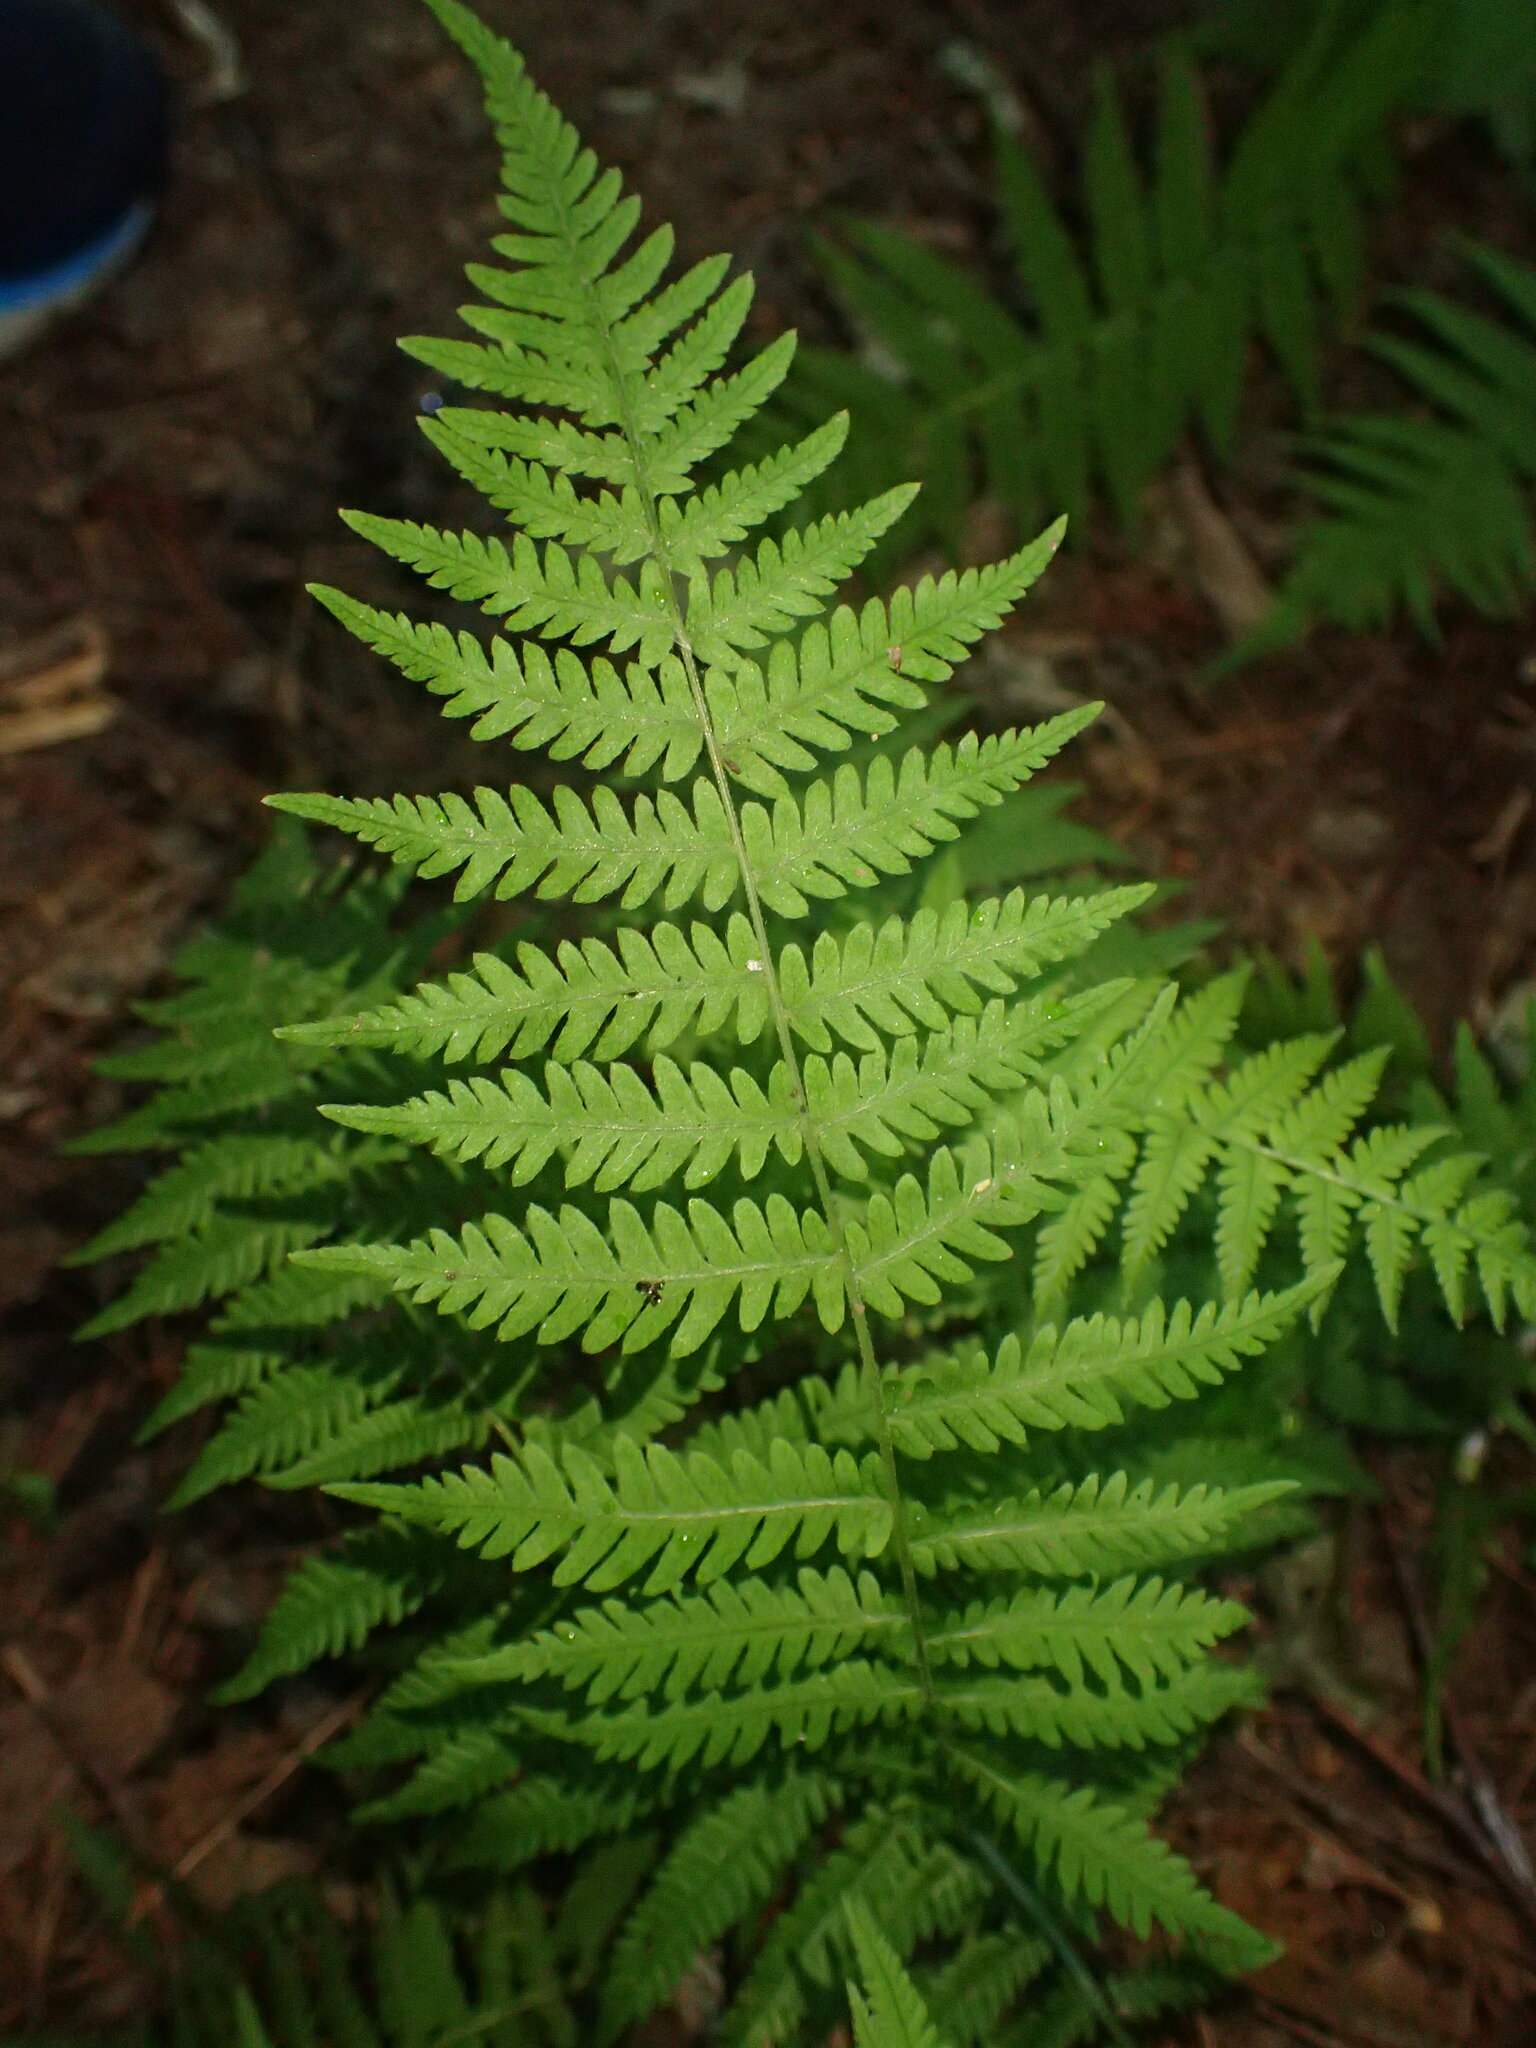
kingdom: Plantae
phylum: Tracheophyta
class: Polypodiopsida
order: Polypodiales
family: Thelypteridaceae
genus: Amauropelta
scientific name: Amauropelta noveboracensis
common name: New york fern
